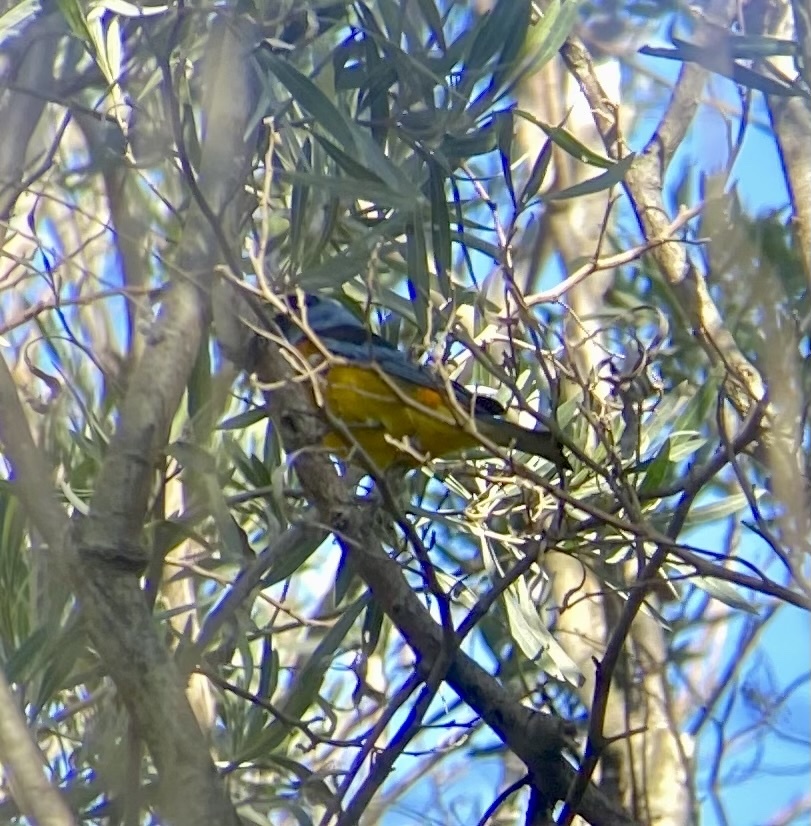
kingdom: Animalia
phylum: Chordata
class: Aves
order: Passeriformes
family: Thraupidae
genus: Rauenia
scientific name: Rauenia bonariensis
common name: Blue-and-yellow tanager
